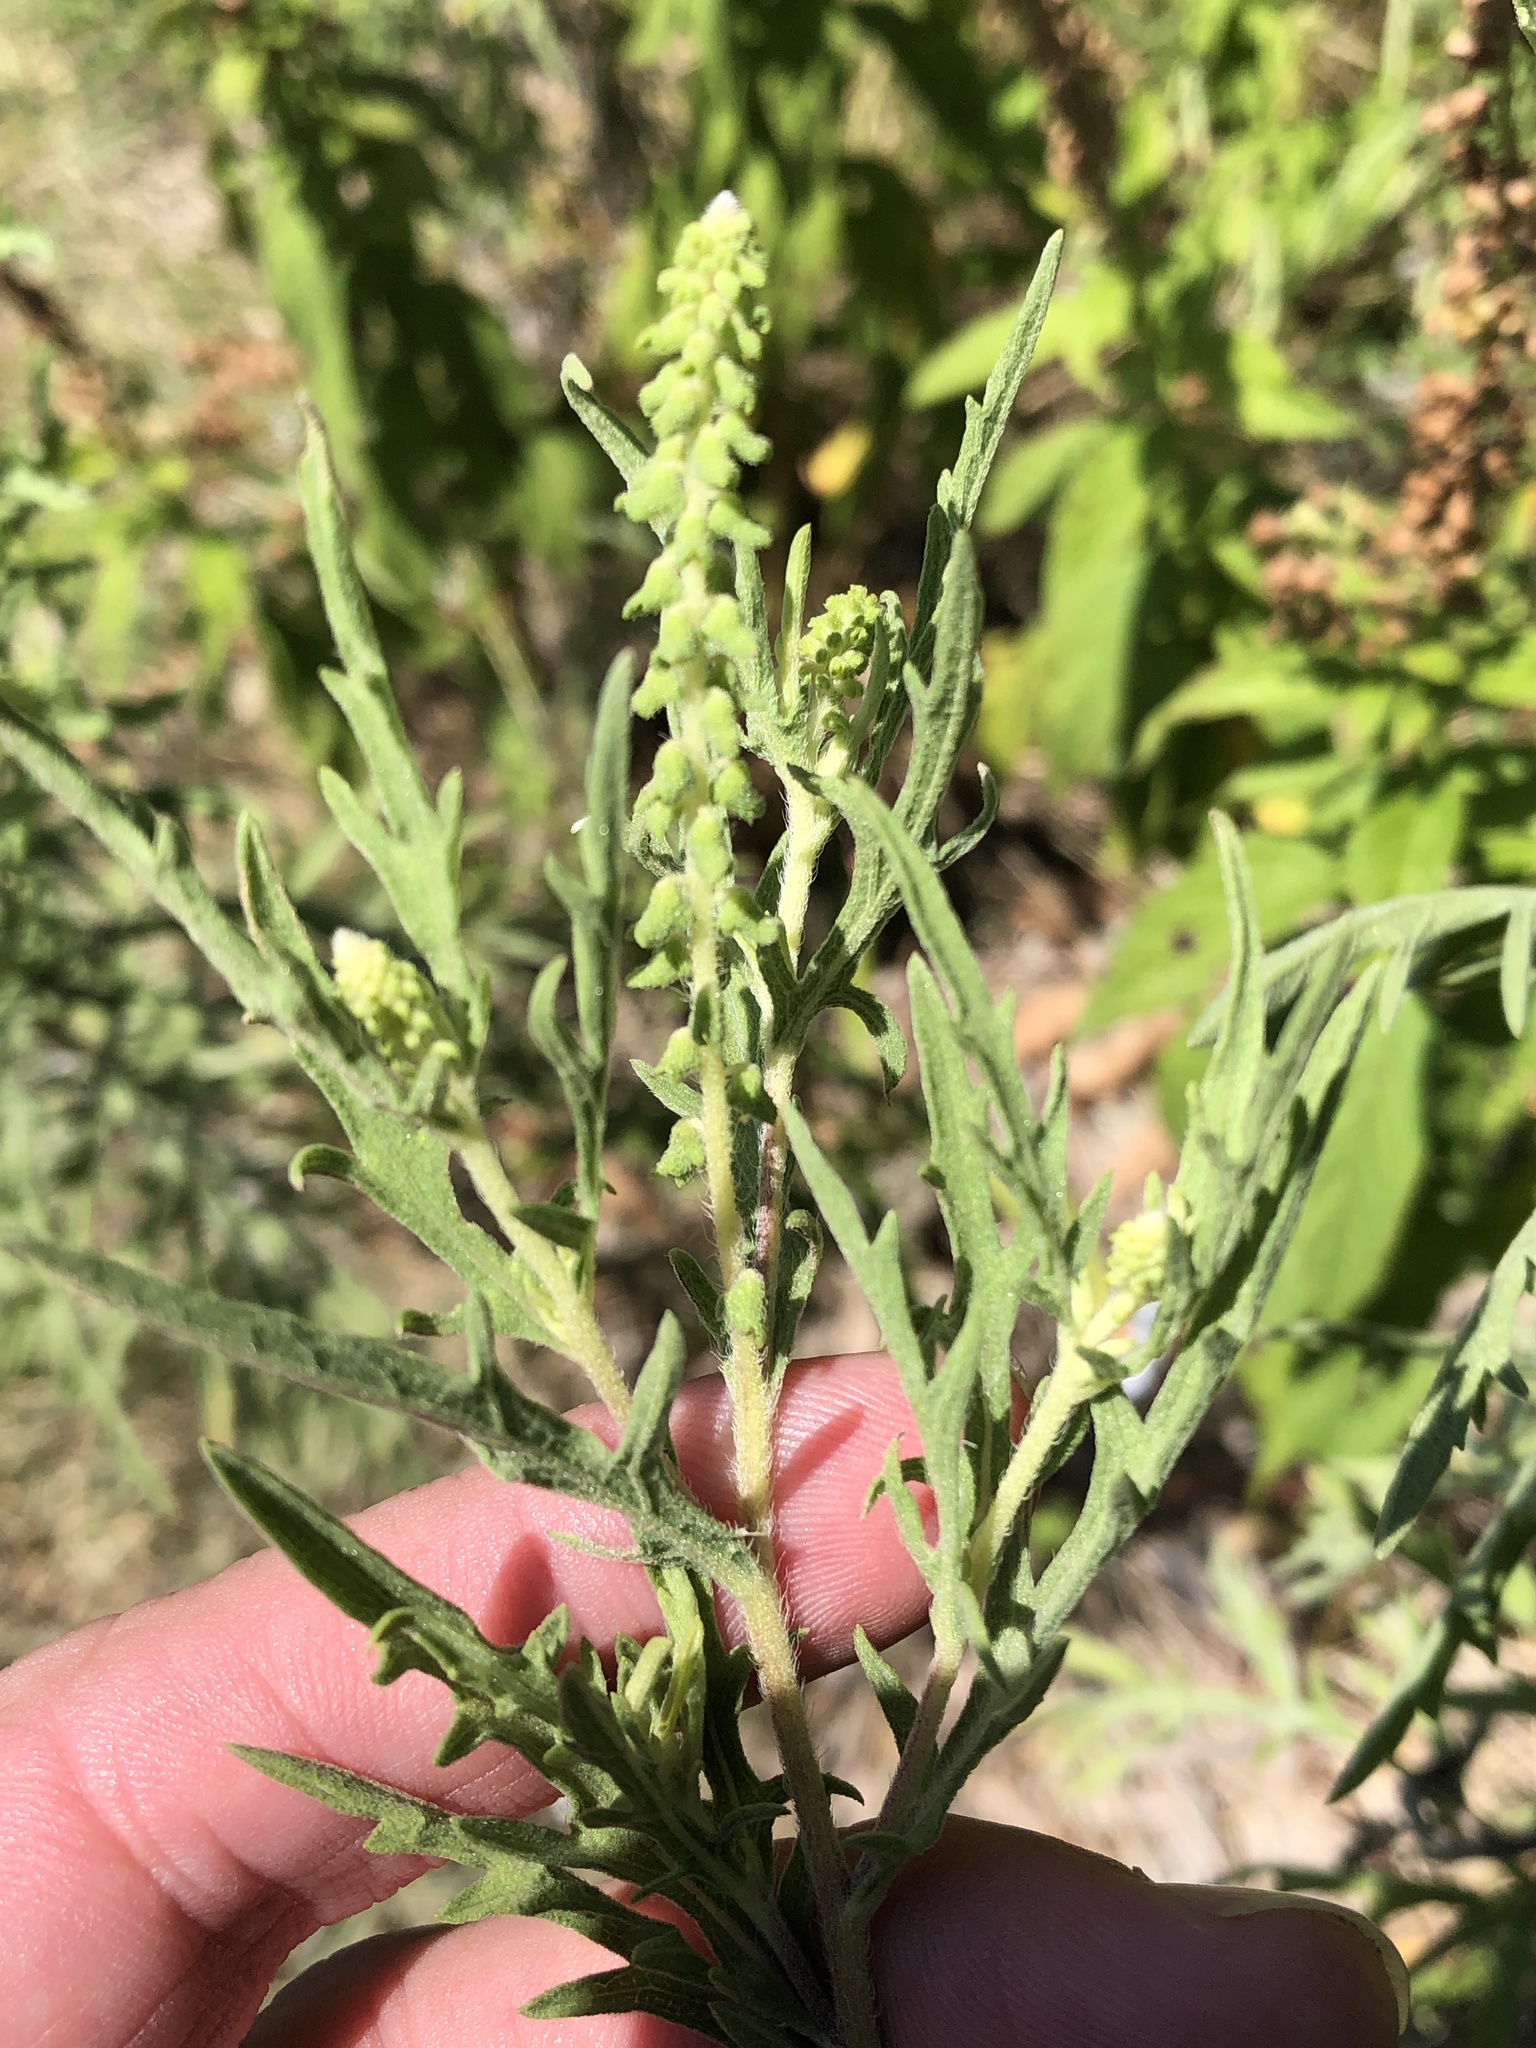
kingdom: Plantae
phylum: Tracheophyta
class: Magnoliopsida
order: Asterales
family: Asteraceae
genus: Ambrosia
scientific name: Ambrosia psilostachya
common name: Perennial ragweed
